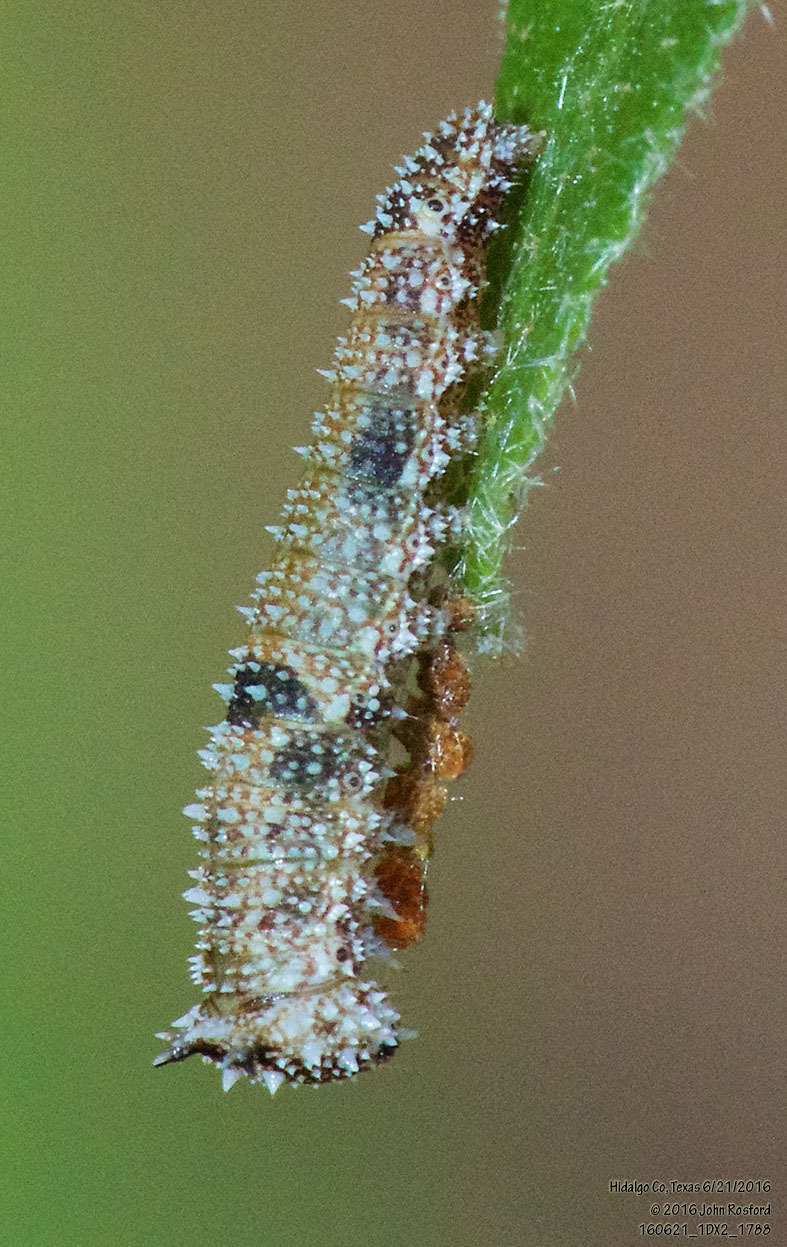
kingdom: Animalia
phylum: Arthropoda
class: Insecta
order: Lepidoptera
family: Nymphalidae
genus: Anaea
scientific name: Anaea aidea
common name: Tropical leafwing
